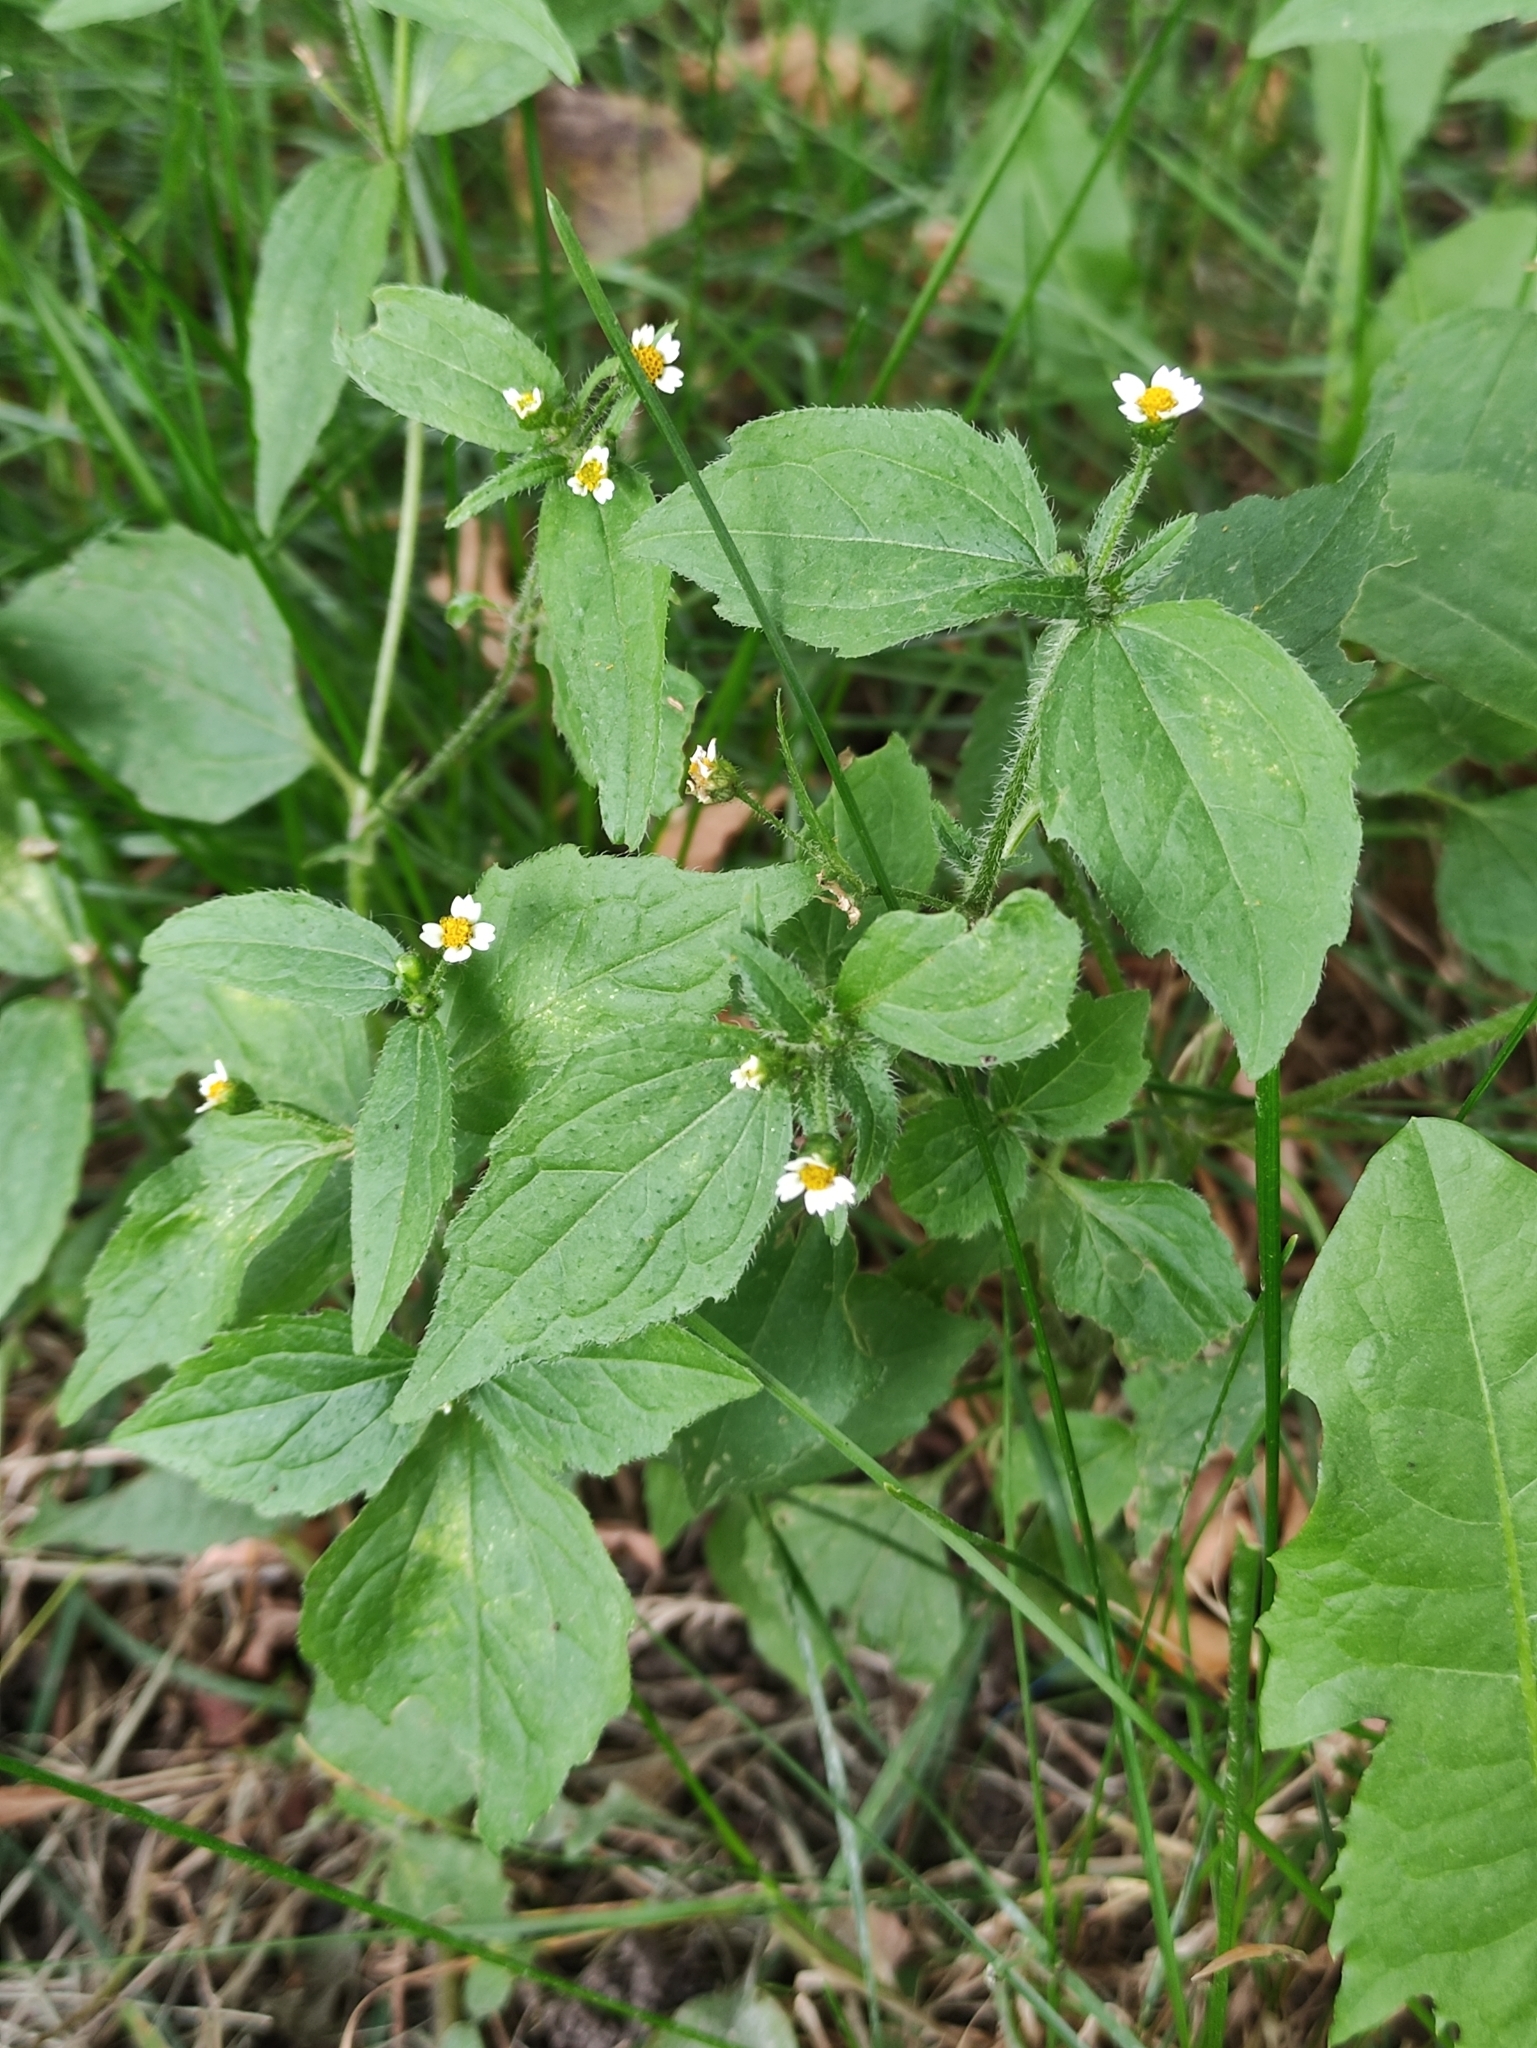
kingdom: Plantae
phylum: Tracheophyta
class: Magnoliopsida
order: Asterales
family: Asteraceae
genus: Galinsoga
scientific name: Galinsoga quadriradiata
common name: Shaggy soldier
